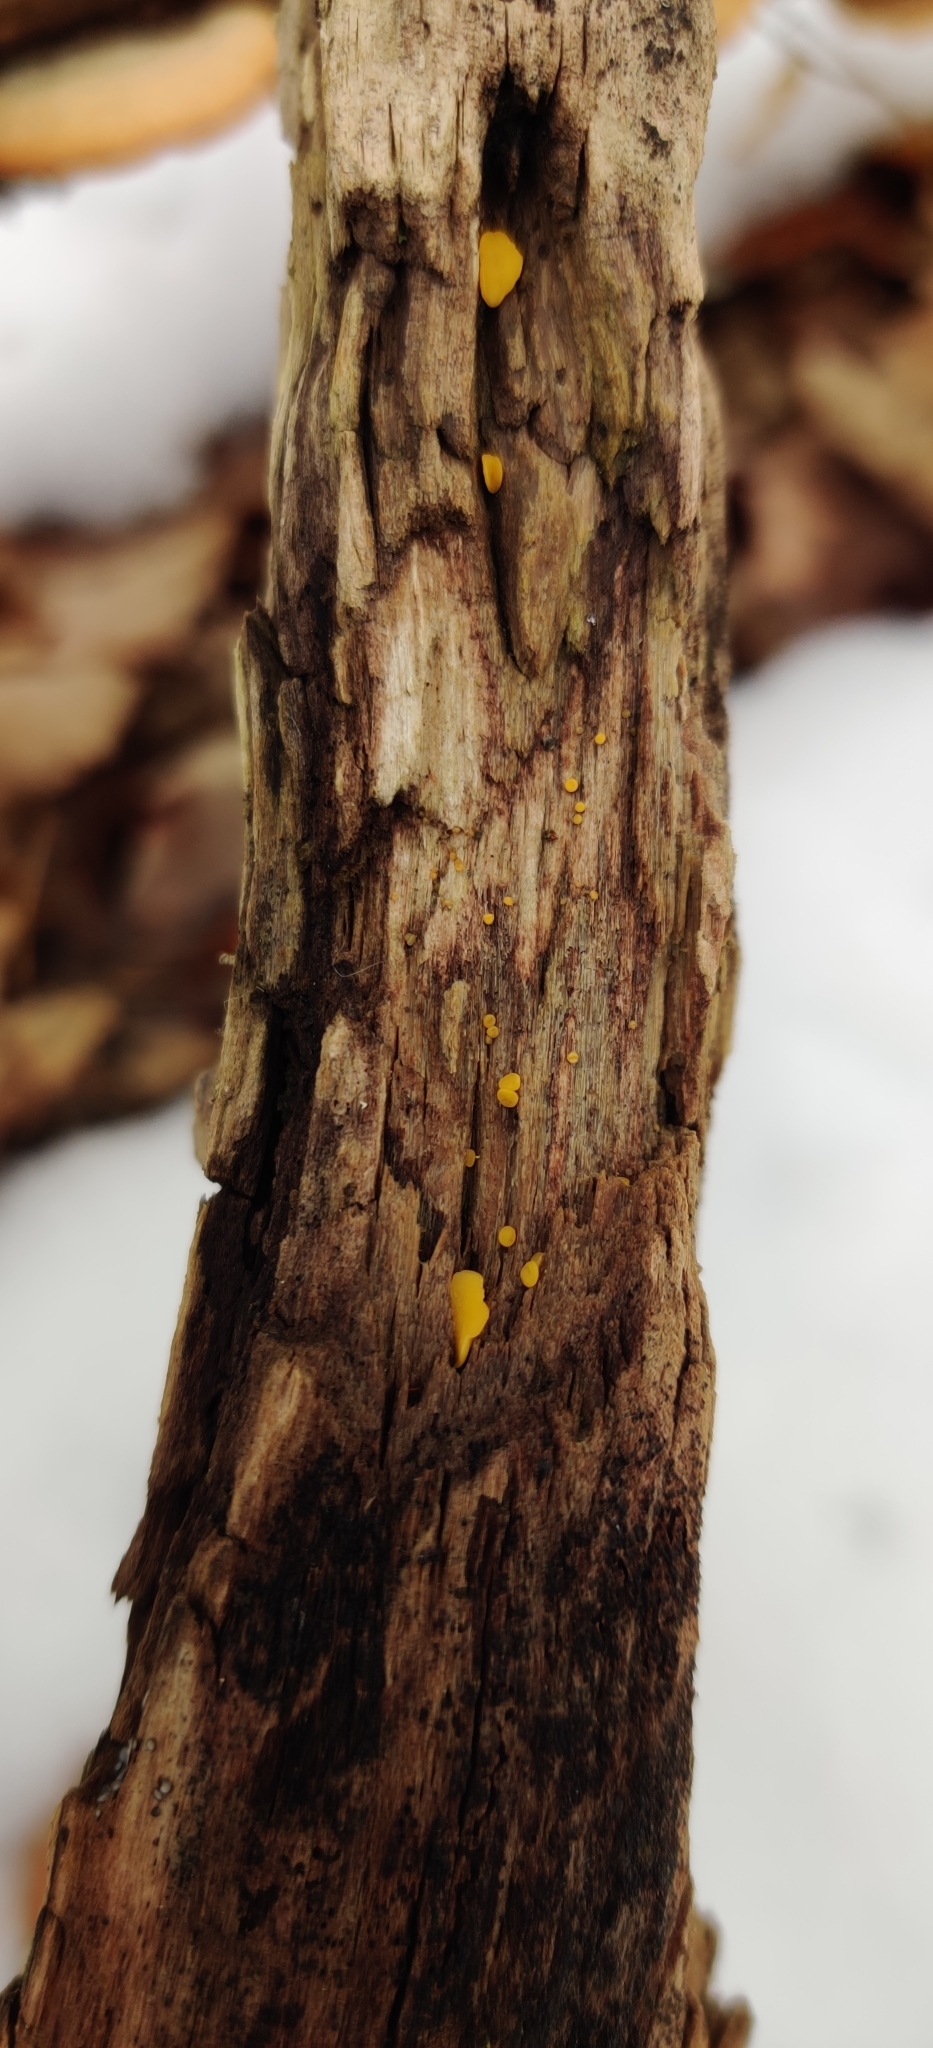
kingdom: Fungi
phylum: Ascomycota
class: Leotiomycetes
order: Helotiales
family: Pezizellaceae
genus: Calycina
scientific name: Calycina citrina
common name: Yellow fairy cups
